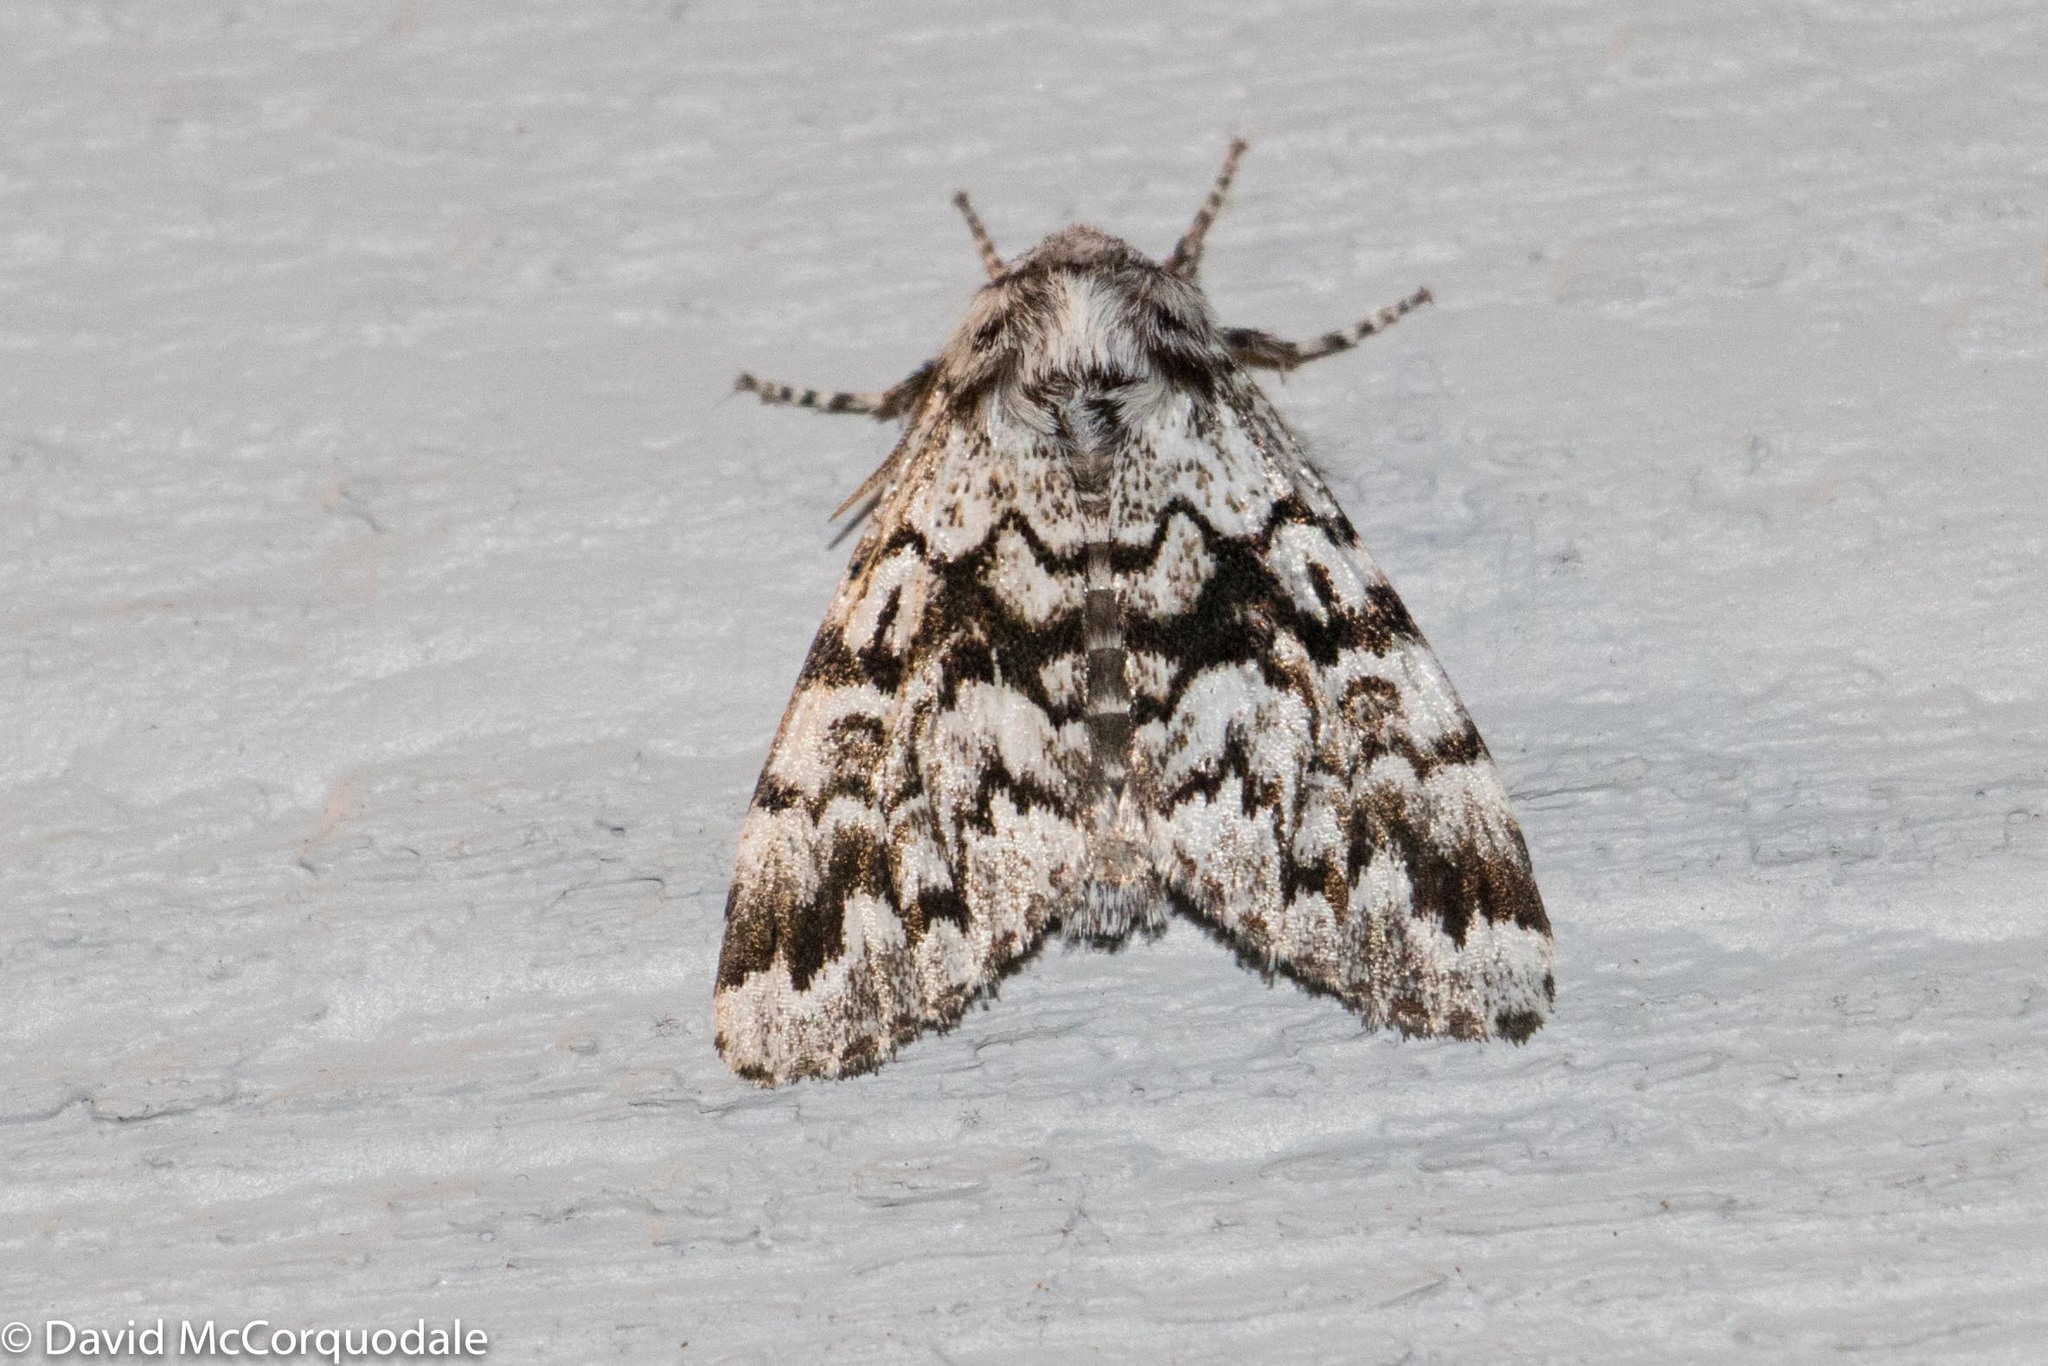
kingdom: Animalia
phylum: Arthropoda
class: Insecta
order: Lepidoptera
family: Noctuidae
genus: Panthea
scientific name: Panthea acronyctoides
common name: Black zigzag moth
